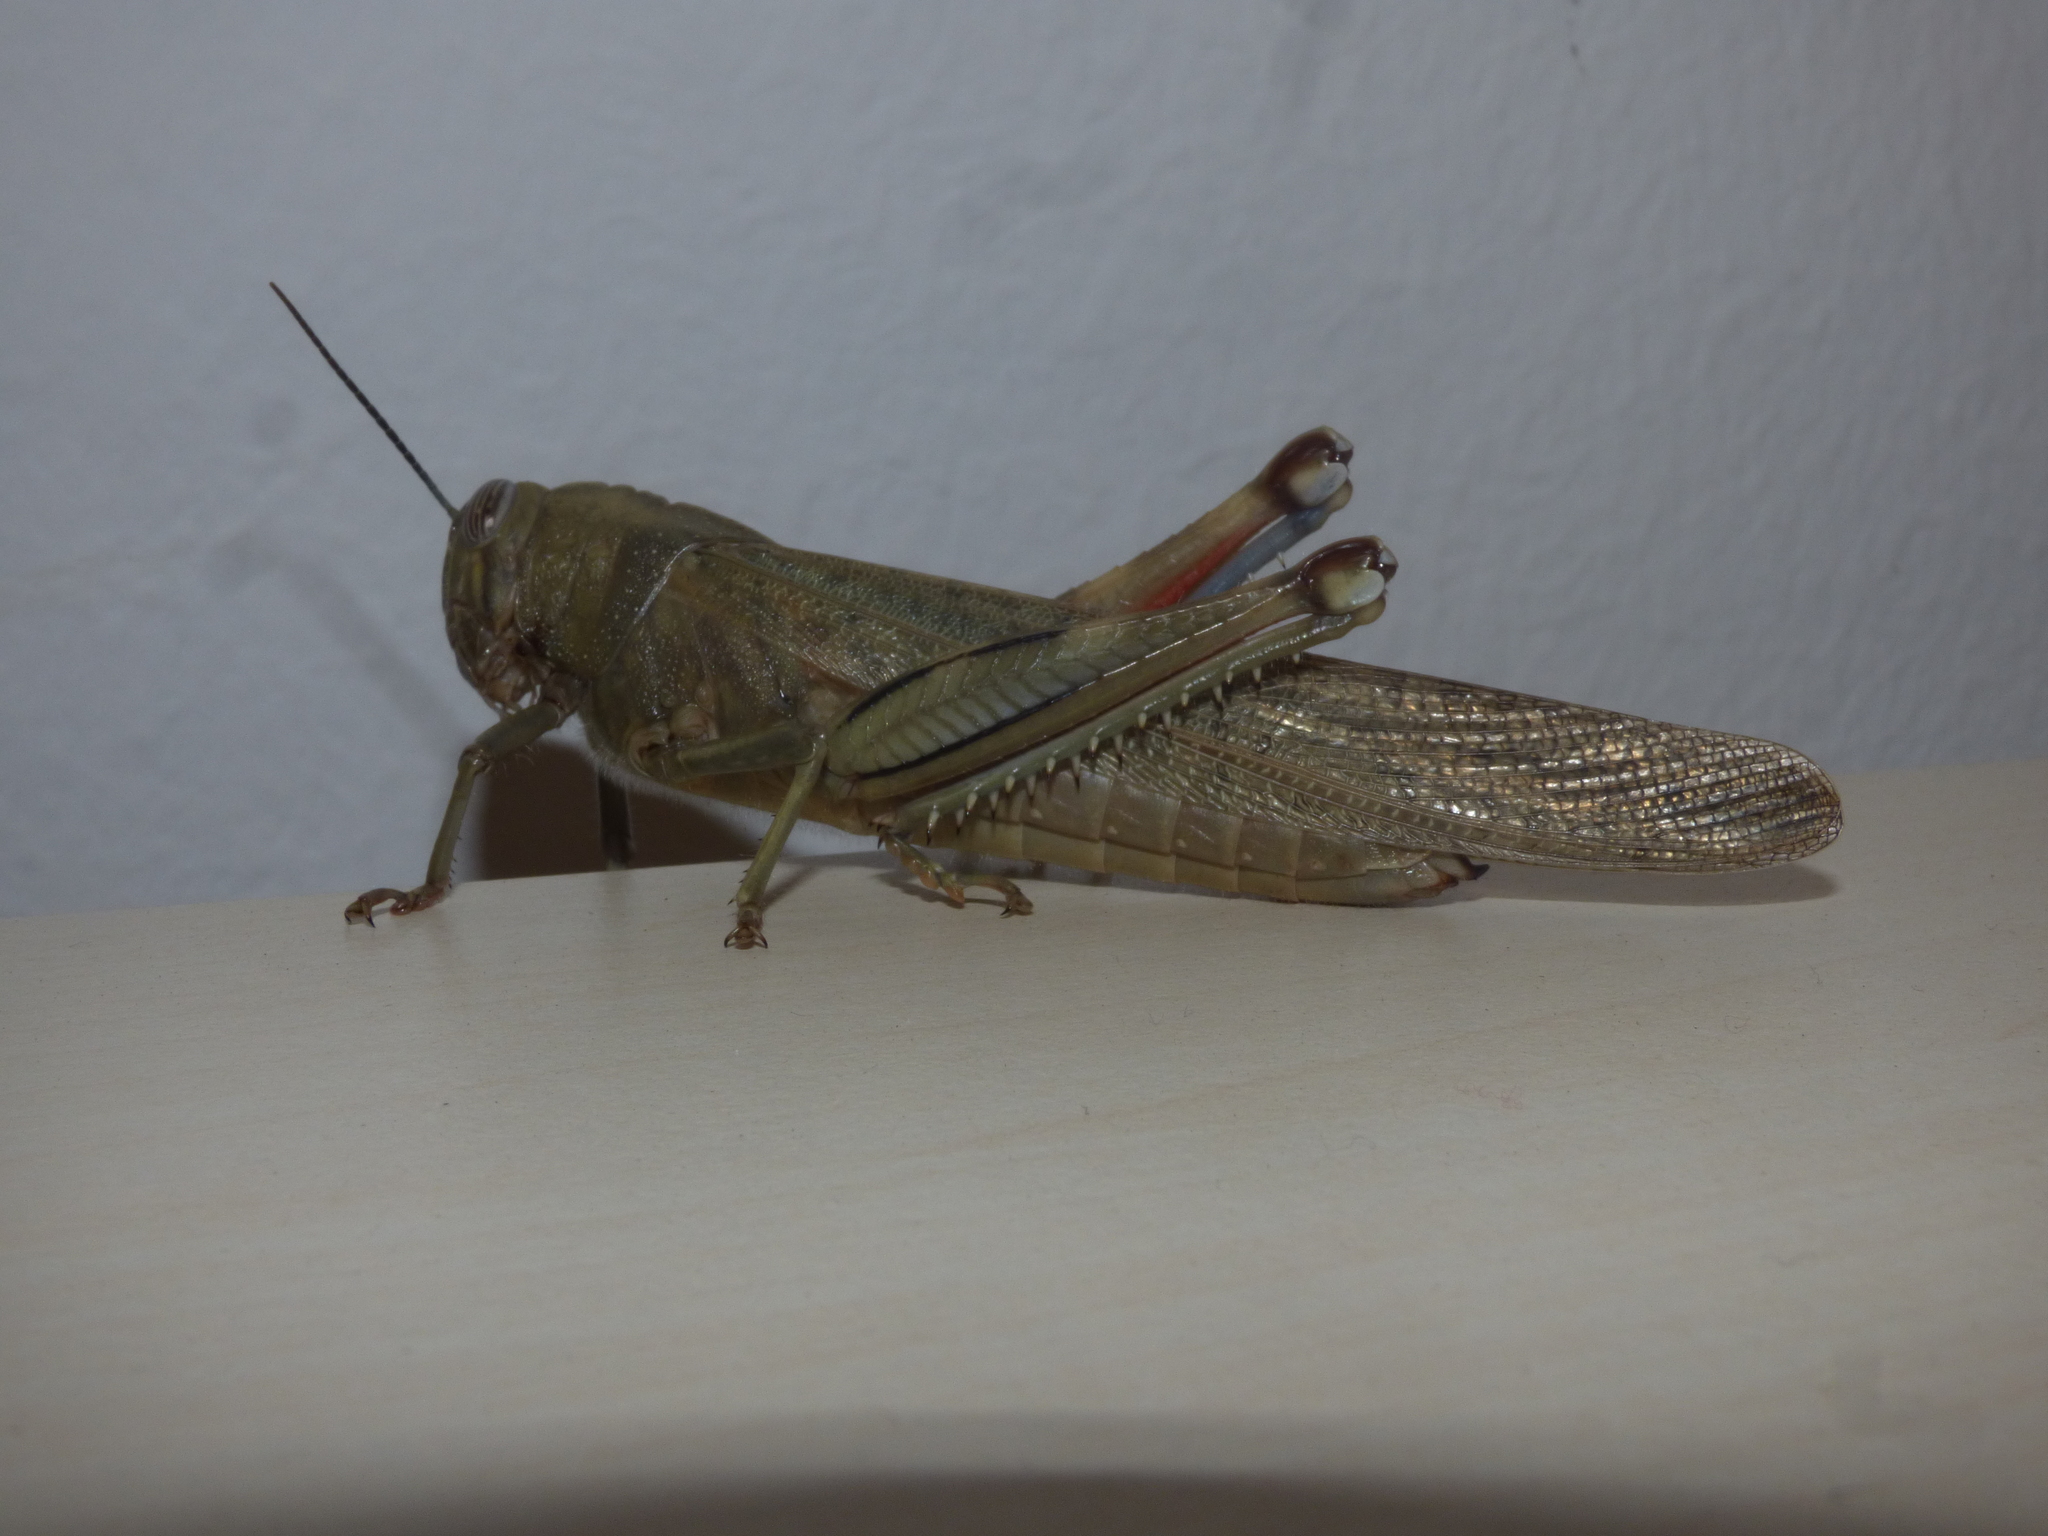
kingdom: Animalia
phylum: Arthropoda
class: Insecta
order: Orthoptera
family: Acrididae
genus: Anacridium
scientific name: Anacridium aegyptium
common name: Egyptian grasshopper
